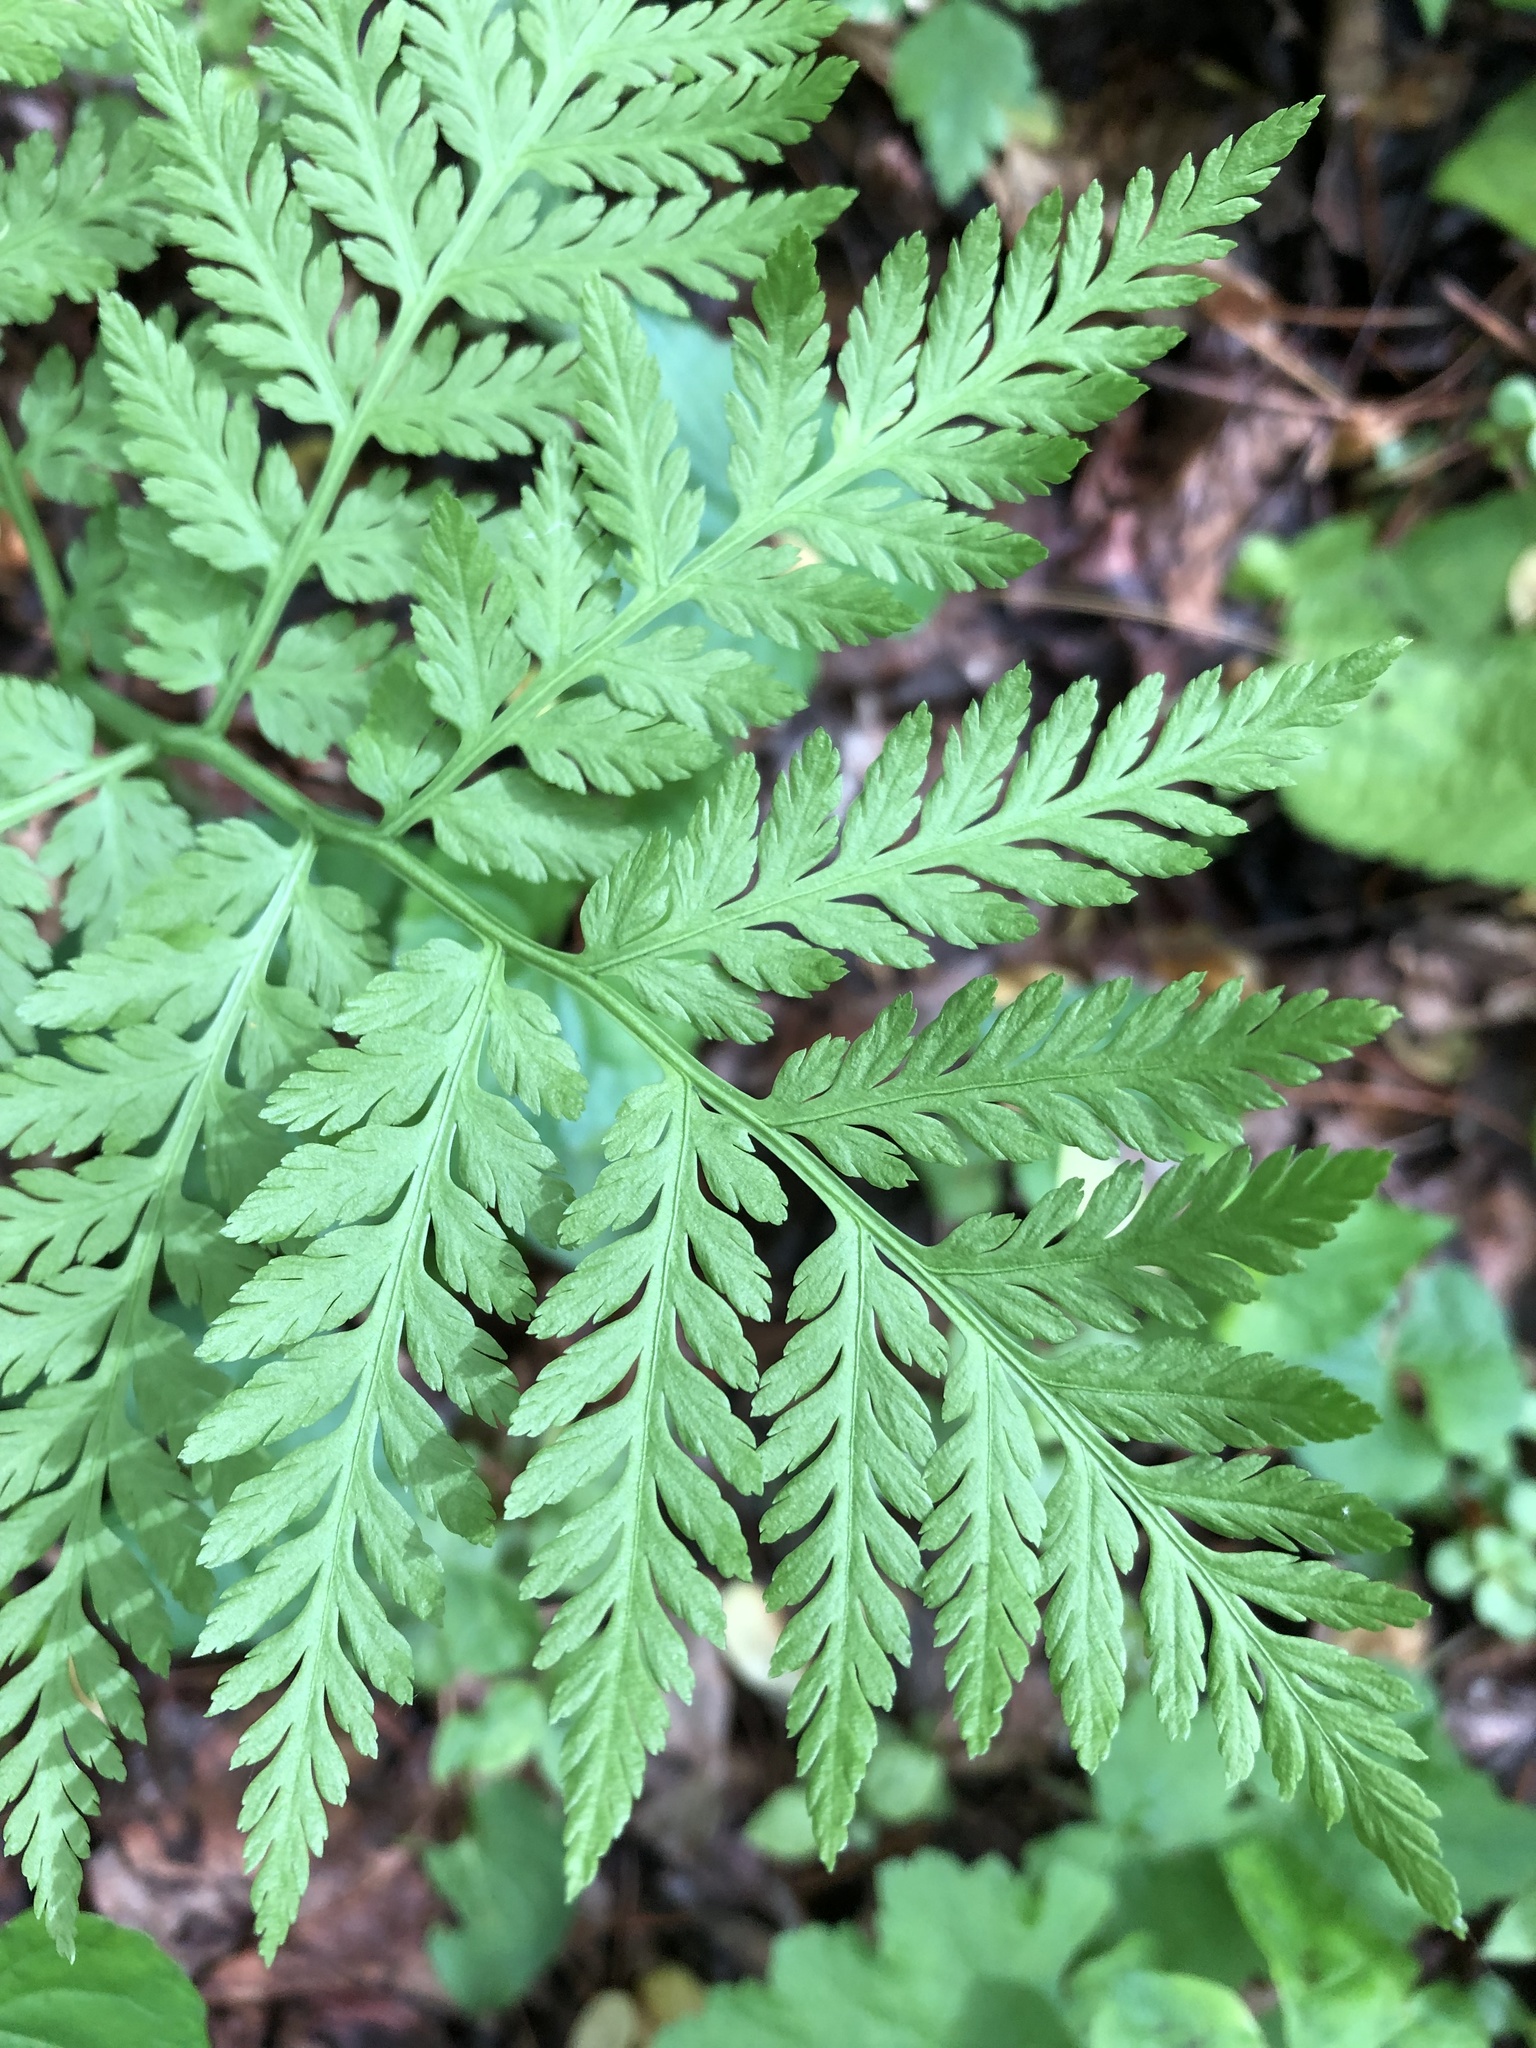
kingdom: Plantae
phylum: Tracheophyta
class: Polypodiopsida
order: Ophioglossales
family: Ophioglossaceae
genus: Botrypus
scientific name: Botrypus virginianus
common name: Common grapefern
